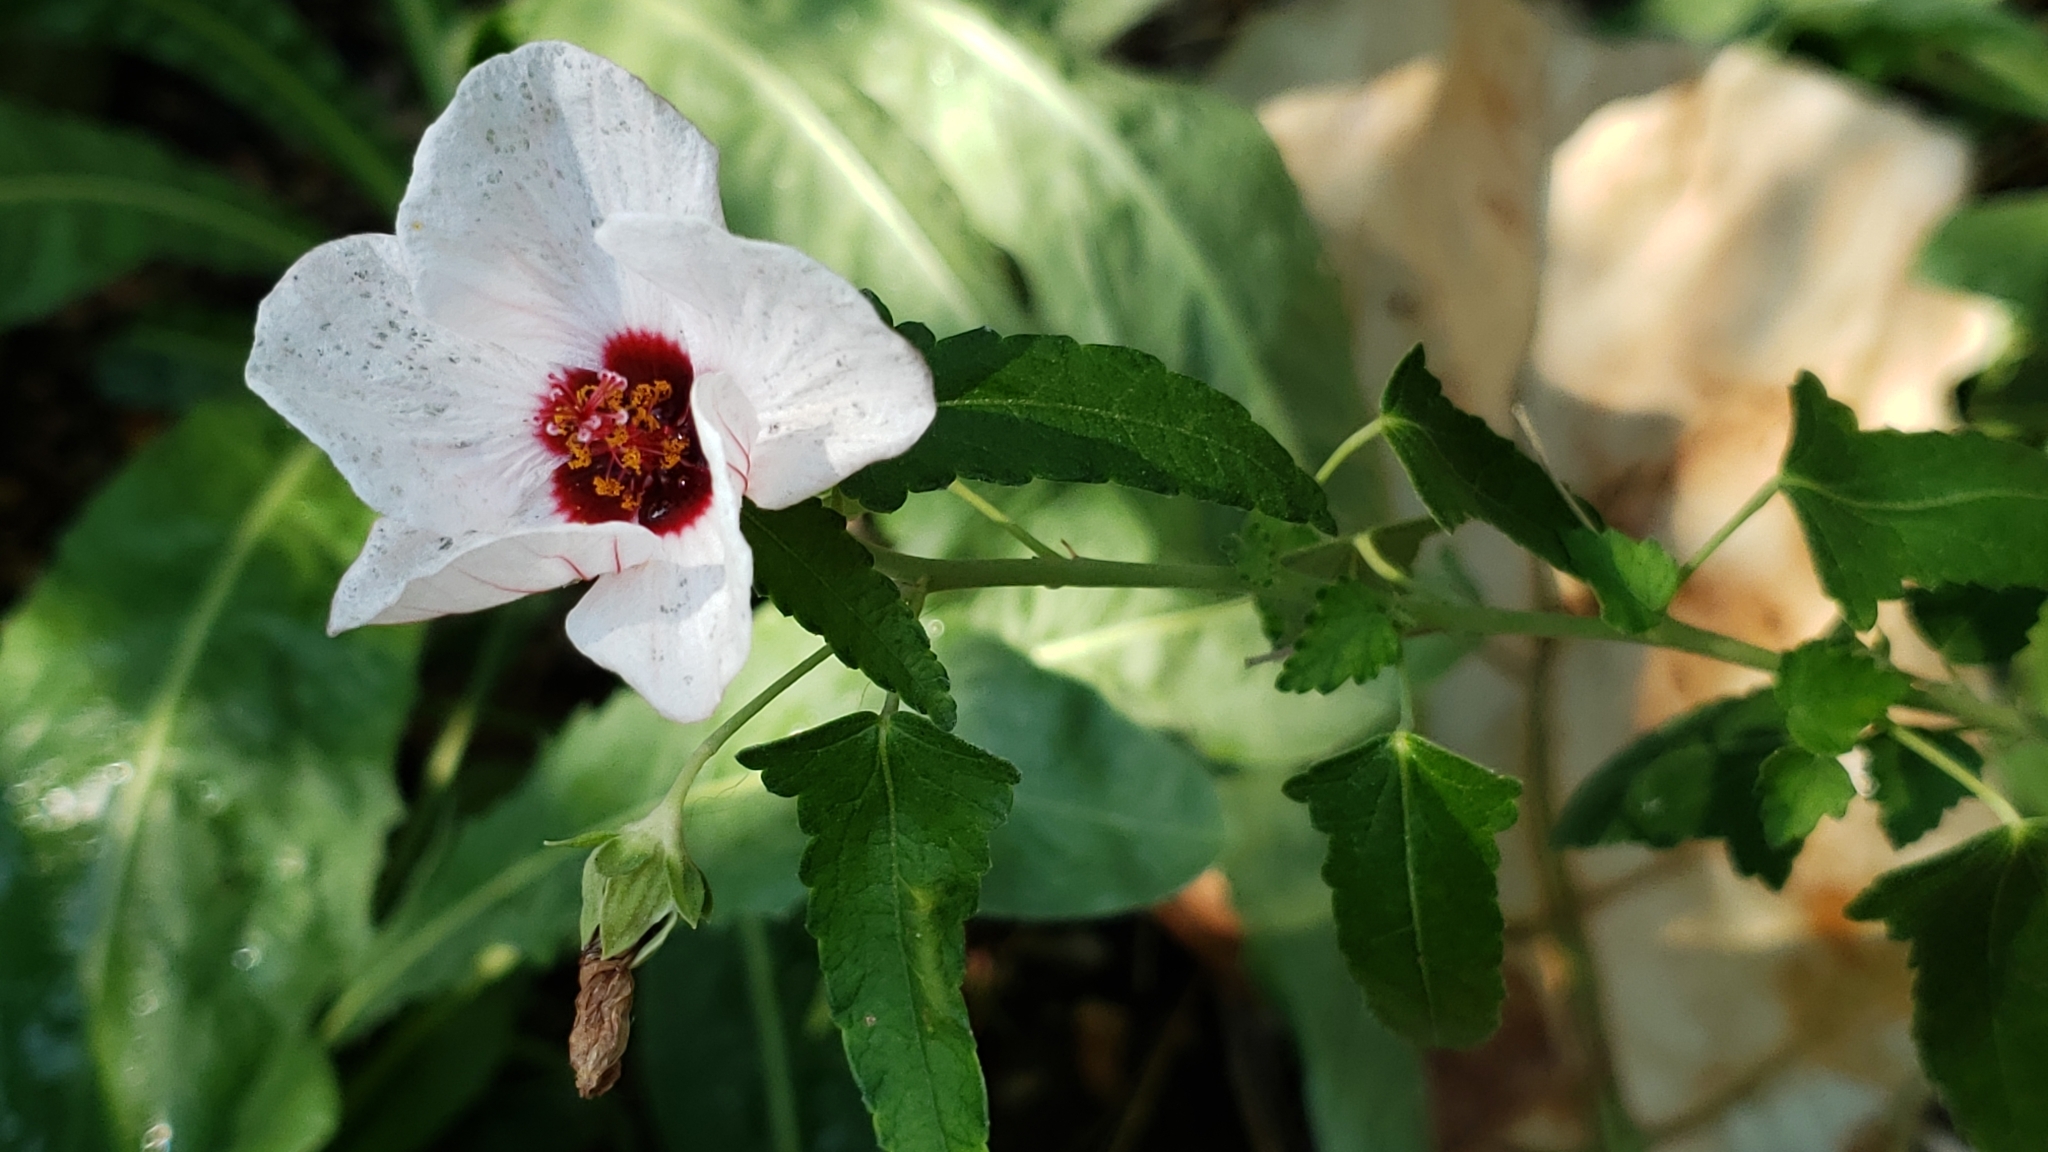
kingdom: Plantae
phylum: Tracheophyta
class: Magnoliopsida
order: Malvales
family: Malvaceae
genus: Pavonia
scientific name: Pavonia hastata
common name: Spearleaf swampmallow
